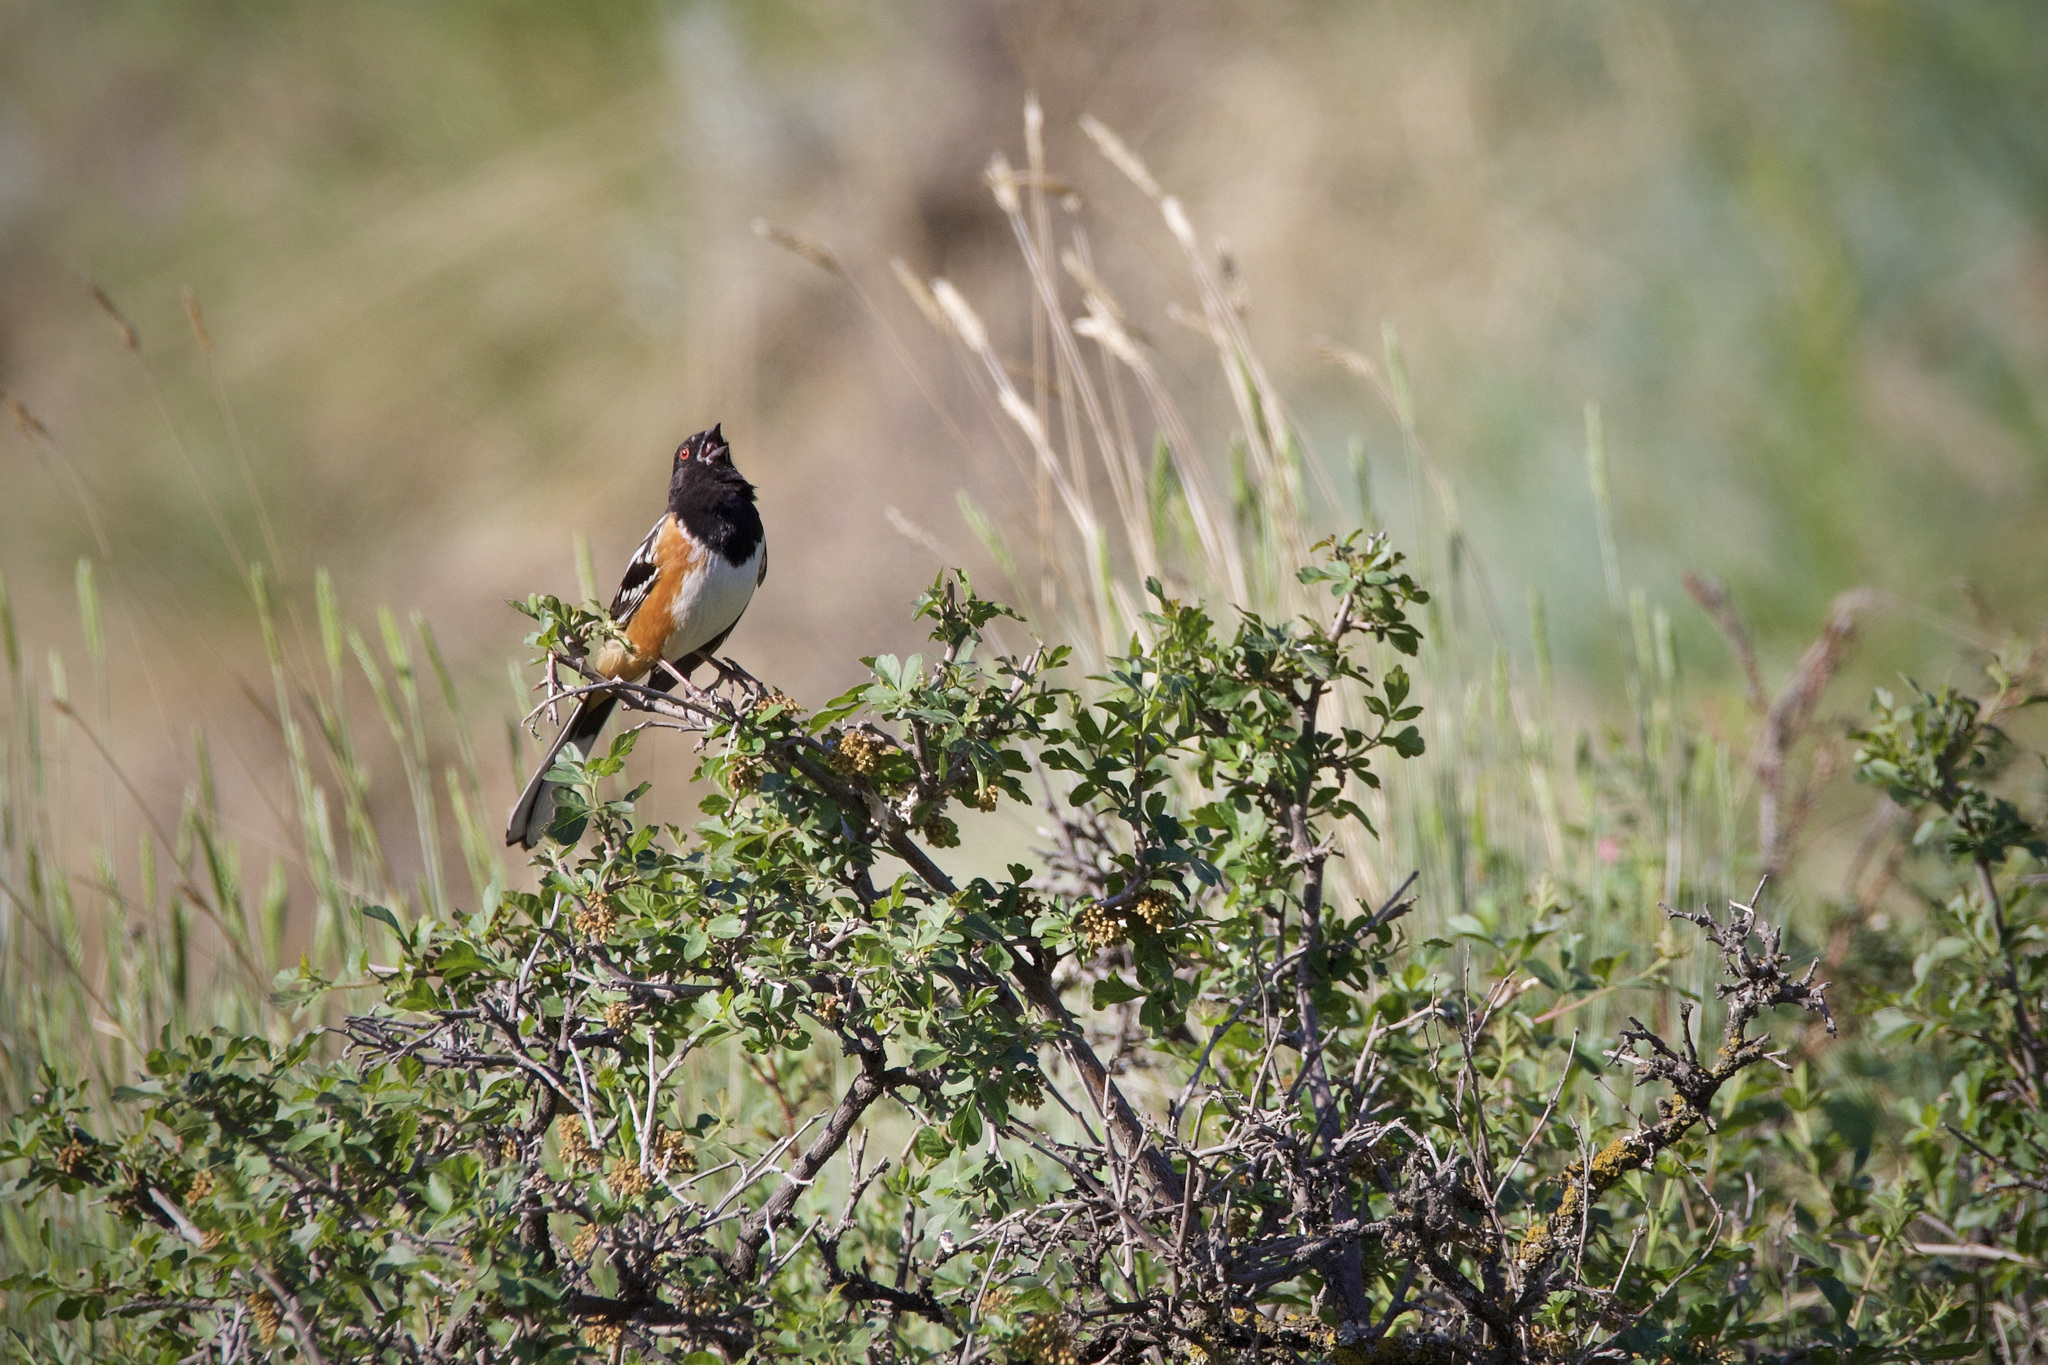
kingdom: Animalia
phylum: Chordata
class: Aves
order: Passeriformes
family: Passerellidae
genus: Pipilo
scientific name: Pipilo maculatus
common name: Spotted towhee
